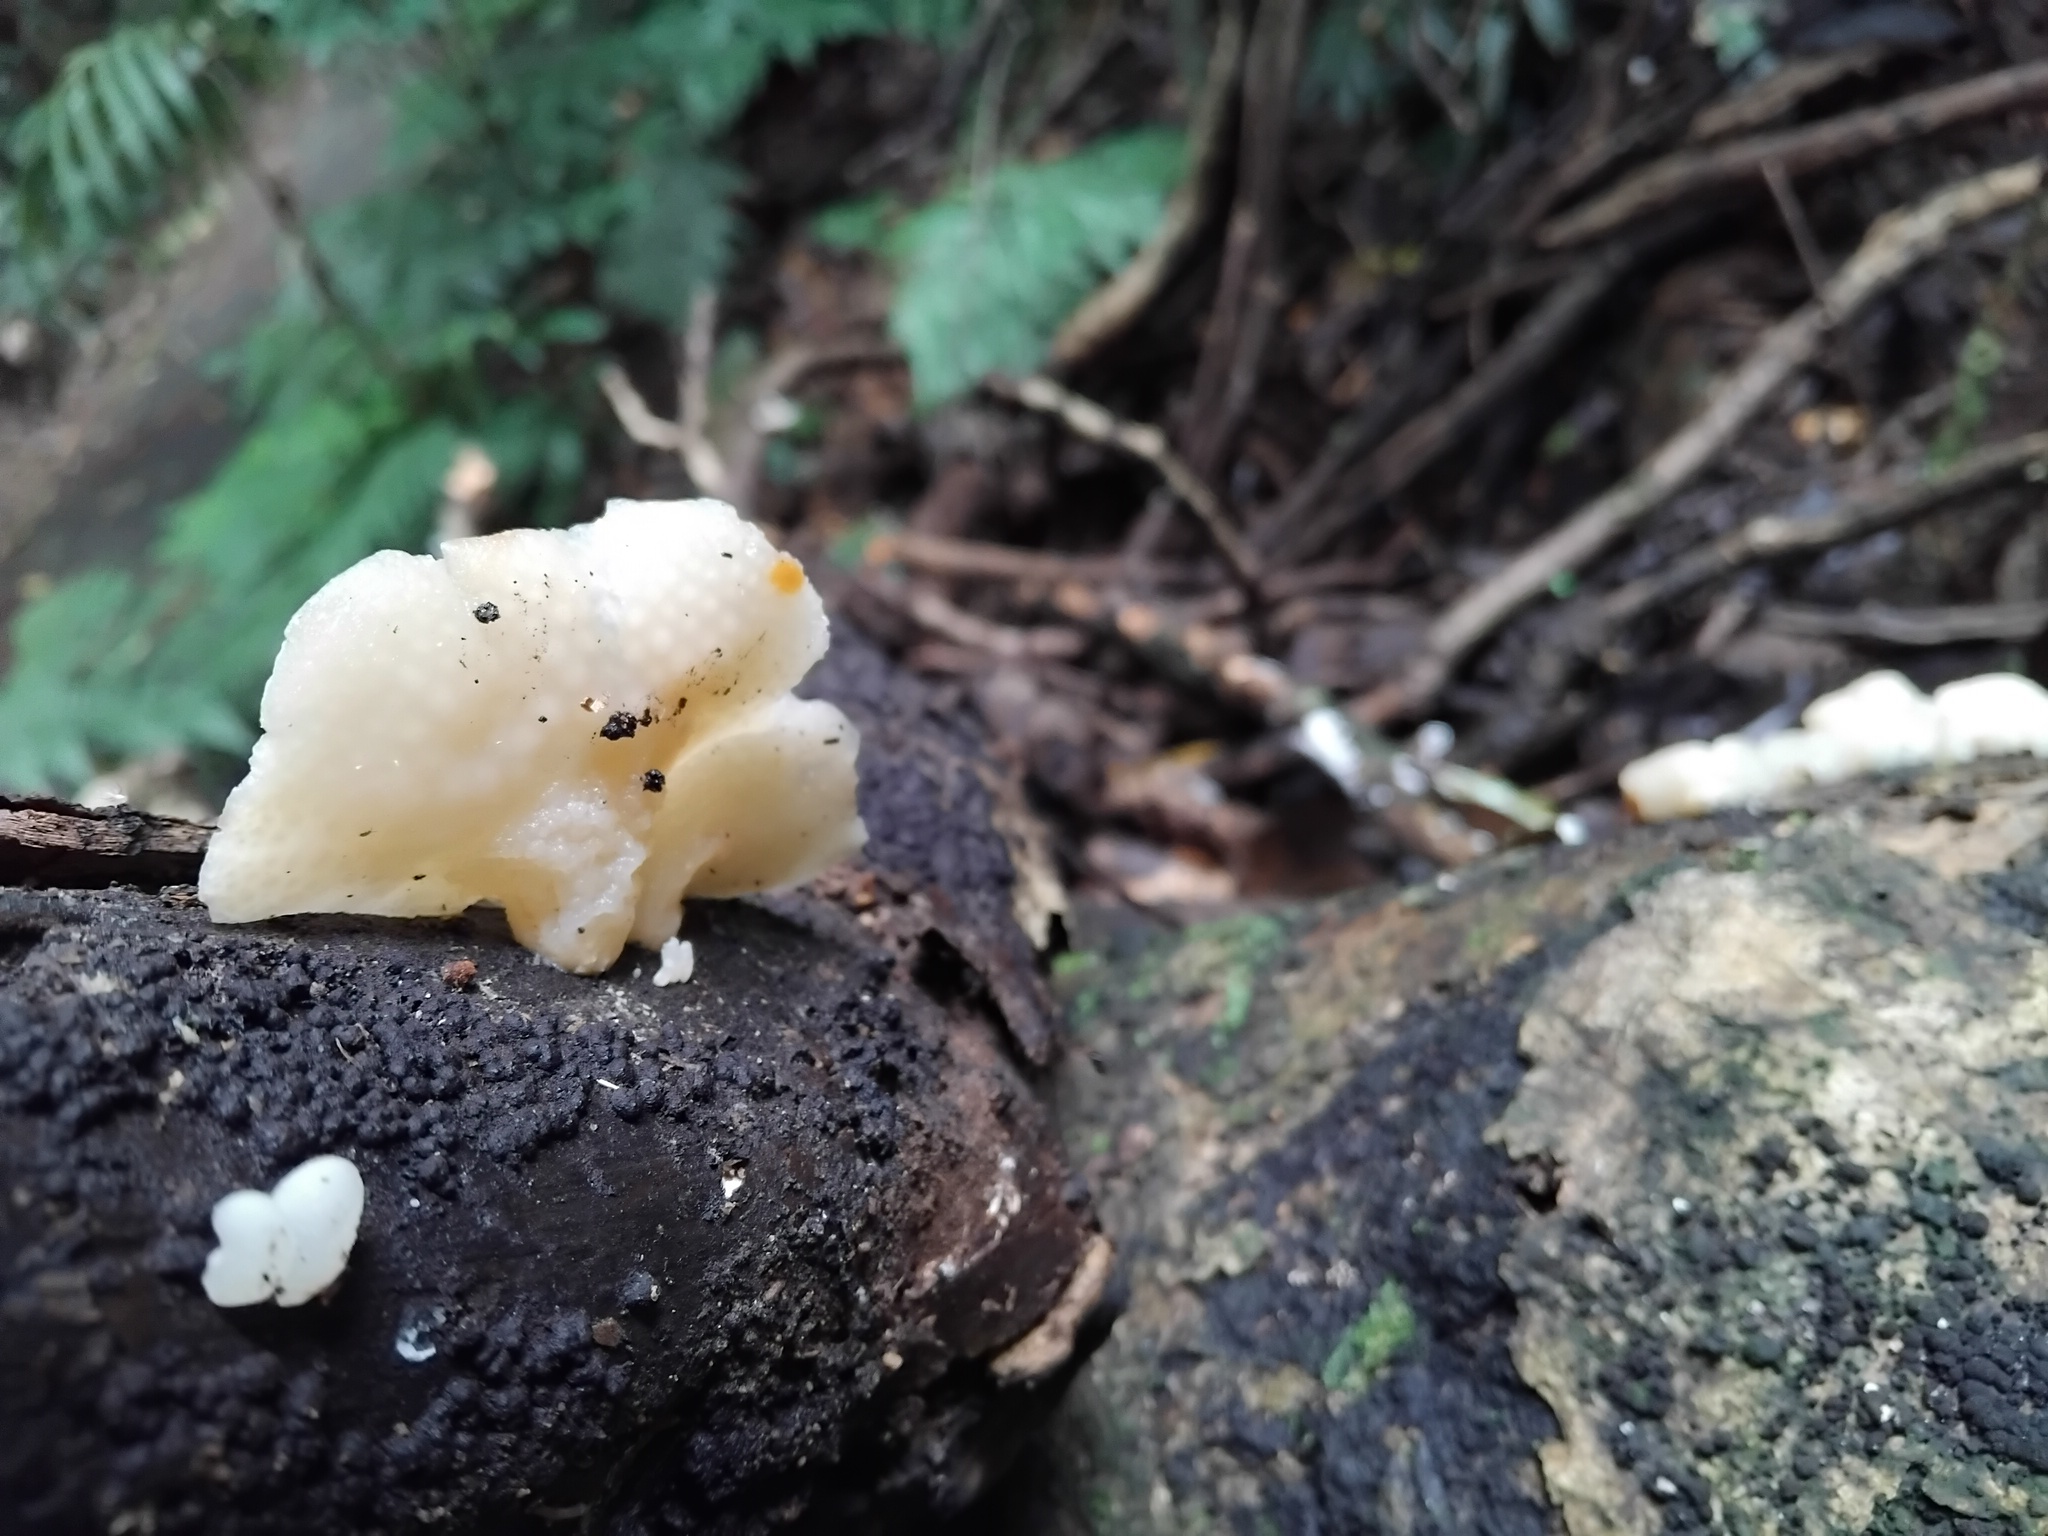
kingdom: Fungi
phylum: Basidiomycota
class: Agaricomycetes
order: Agaricales
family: Mycenaceae
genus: Favolaschia
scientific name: Favolaschia pustulosa
